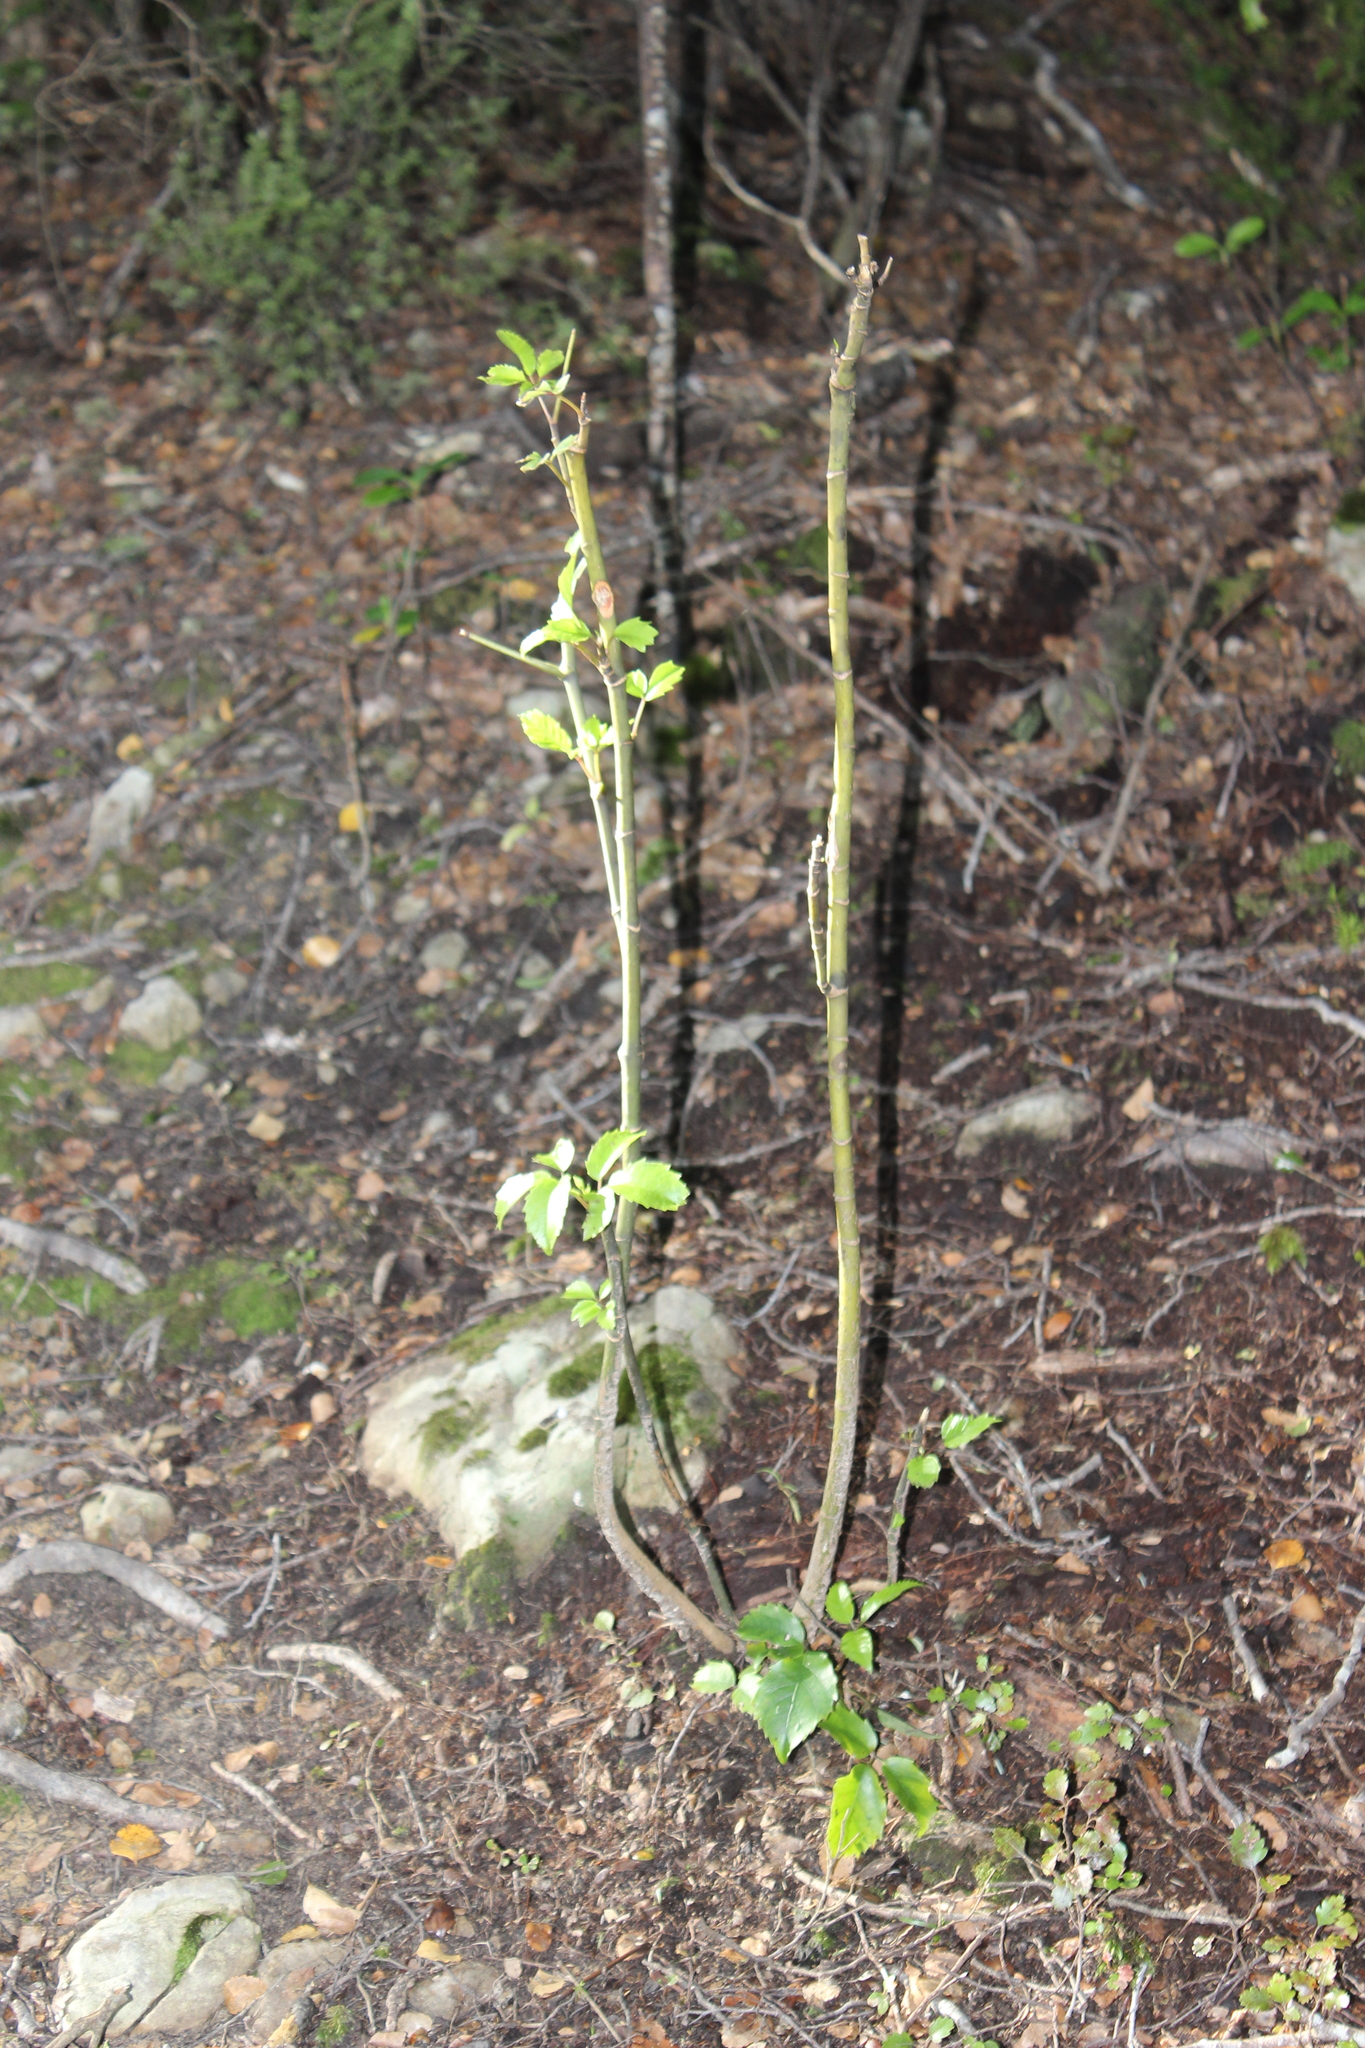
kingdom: Plantae
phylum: Tracheophyta
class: Magnoliopsida
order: Apiales
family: Araliaceae
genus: Neopanax
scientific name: Neopanax arboreus
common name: Five-fingers
